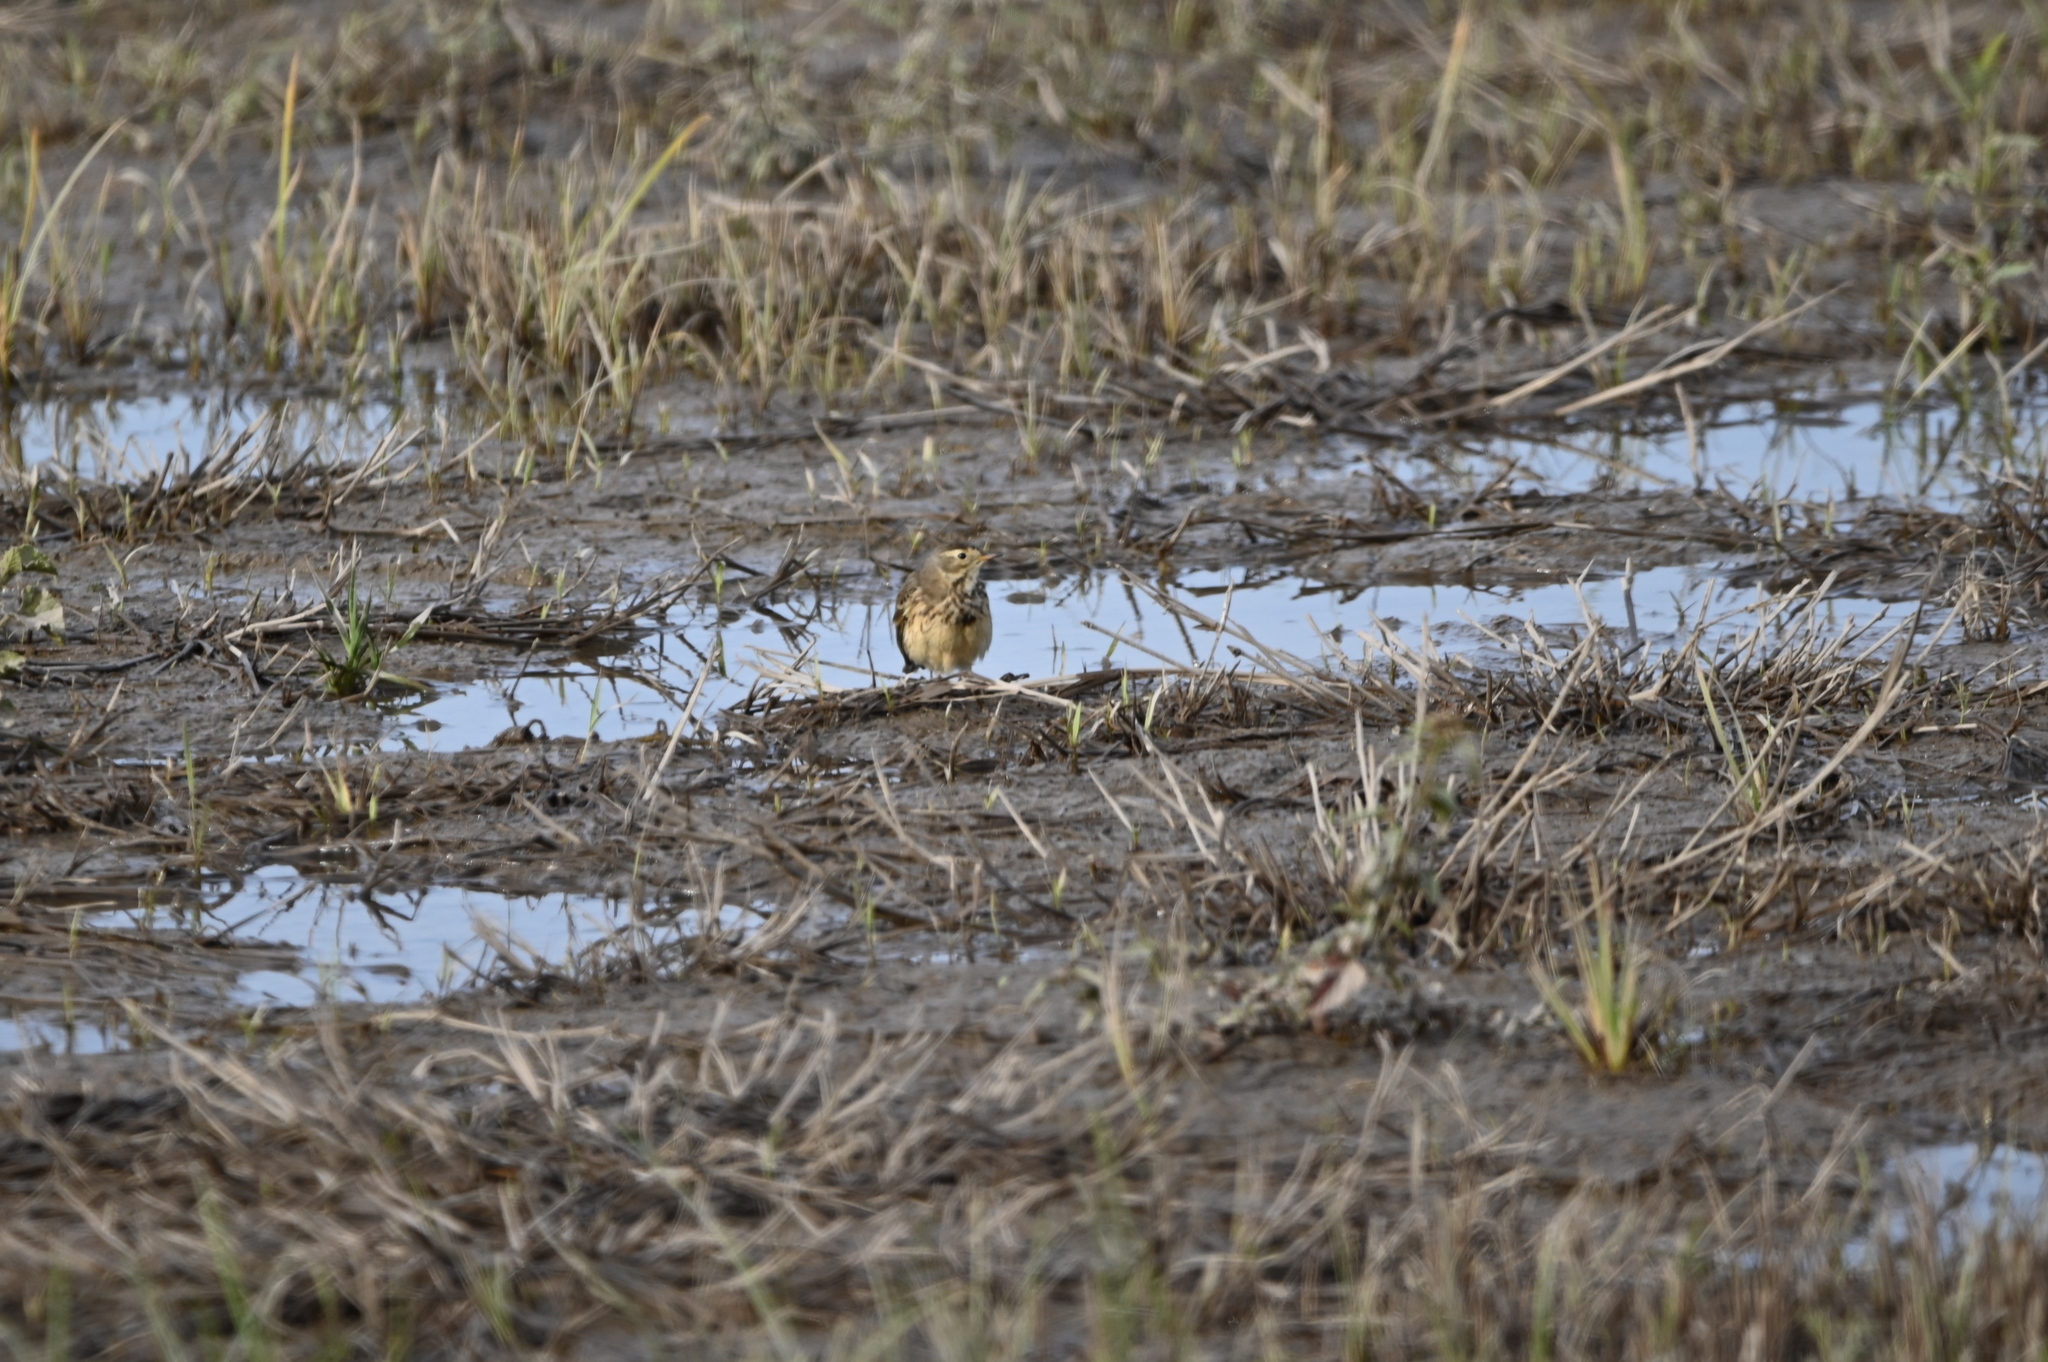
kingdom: Animalia
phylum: Chordata
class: Aves
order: Passeriformes
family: Motacillidae
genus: Anthus
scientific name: Anthus rubescens
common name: Buff-bellied pipit
